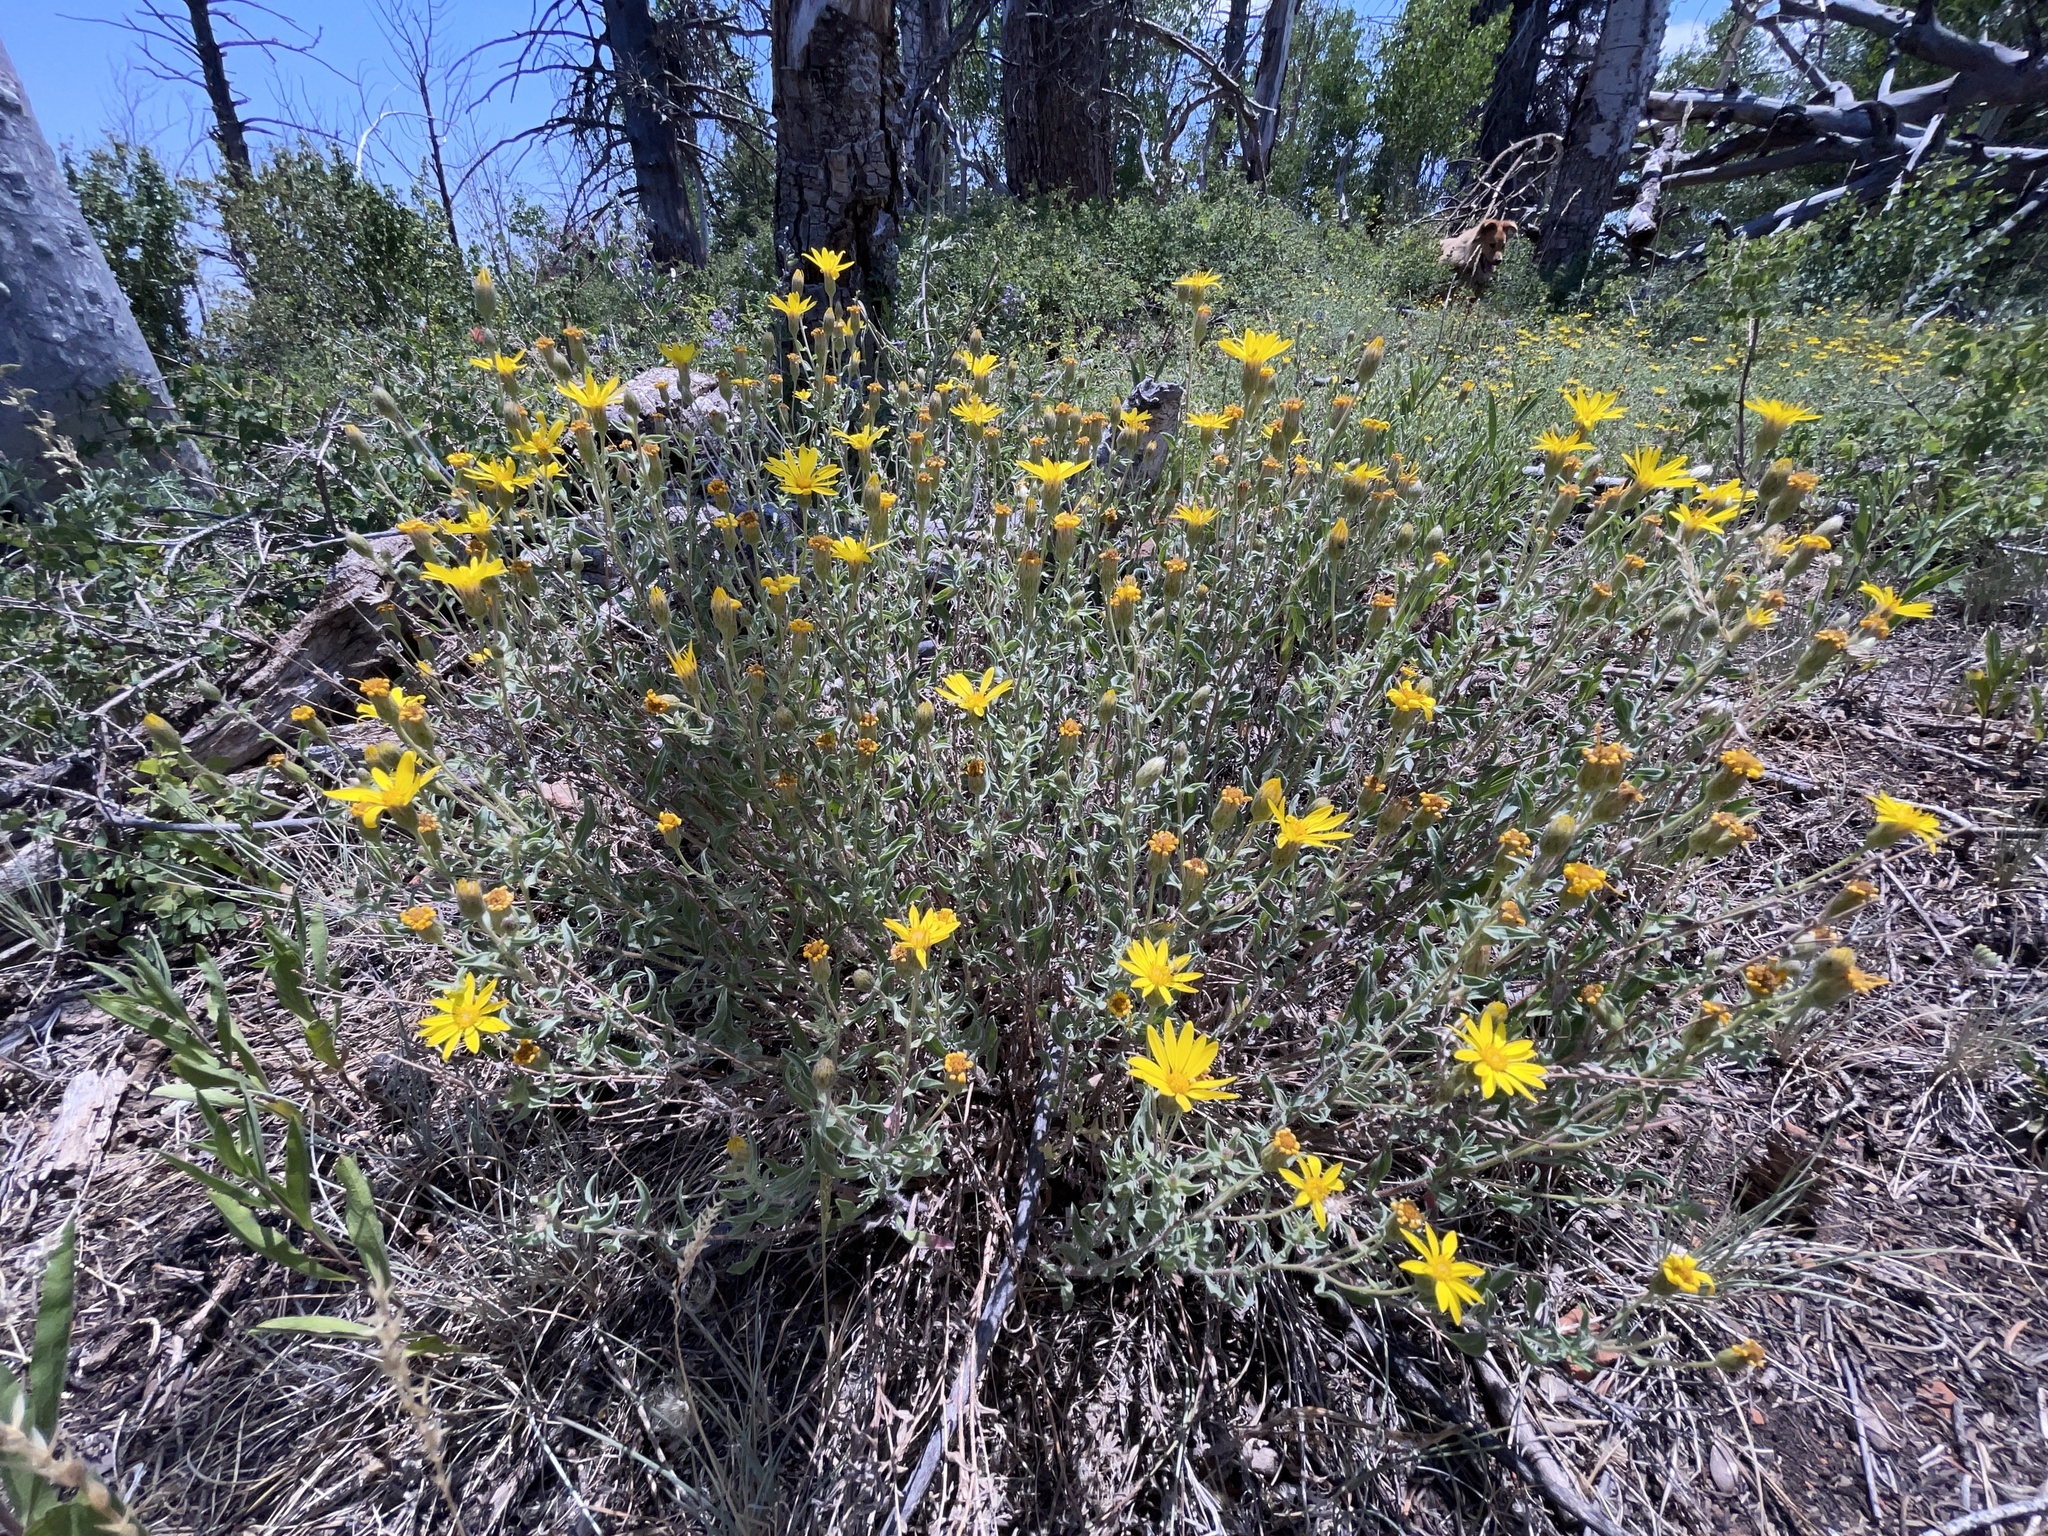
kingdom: Plantae
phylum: Tracheophyta
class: Magnoliopsida
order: Asterales
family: Asteraceae
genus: Heterotheca
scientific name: Heterotheca pedunculata
